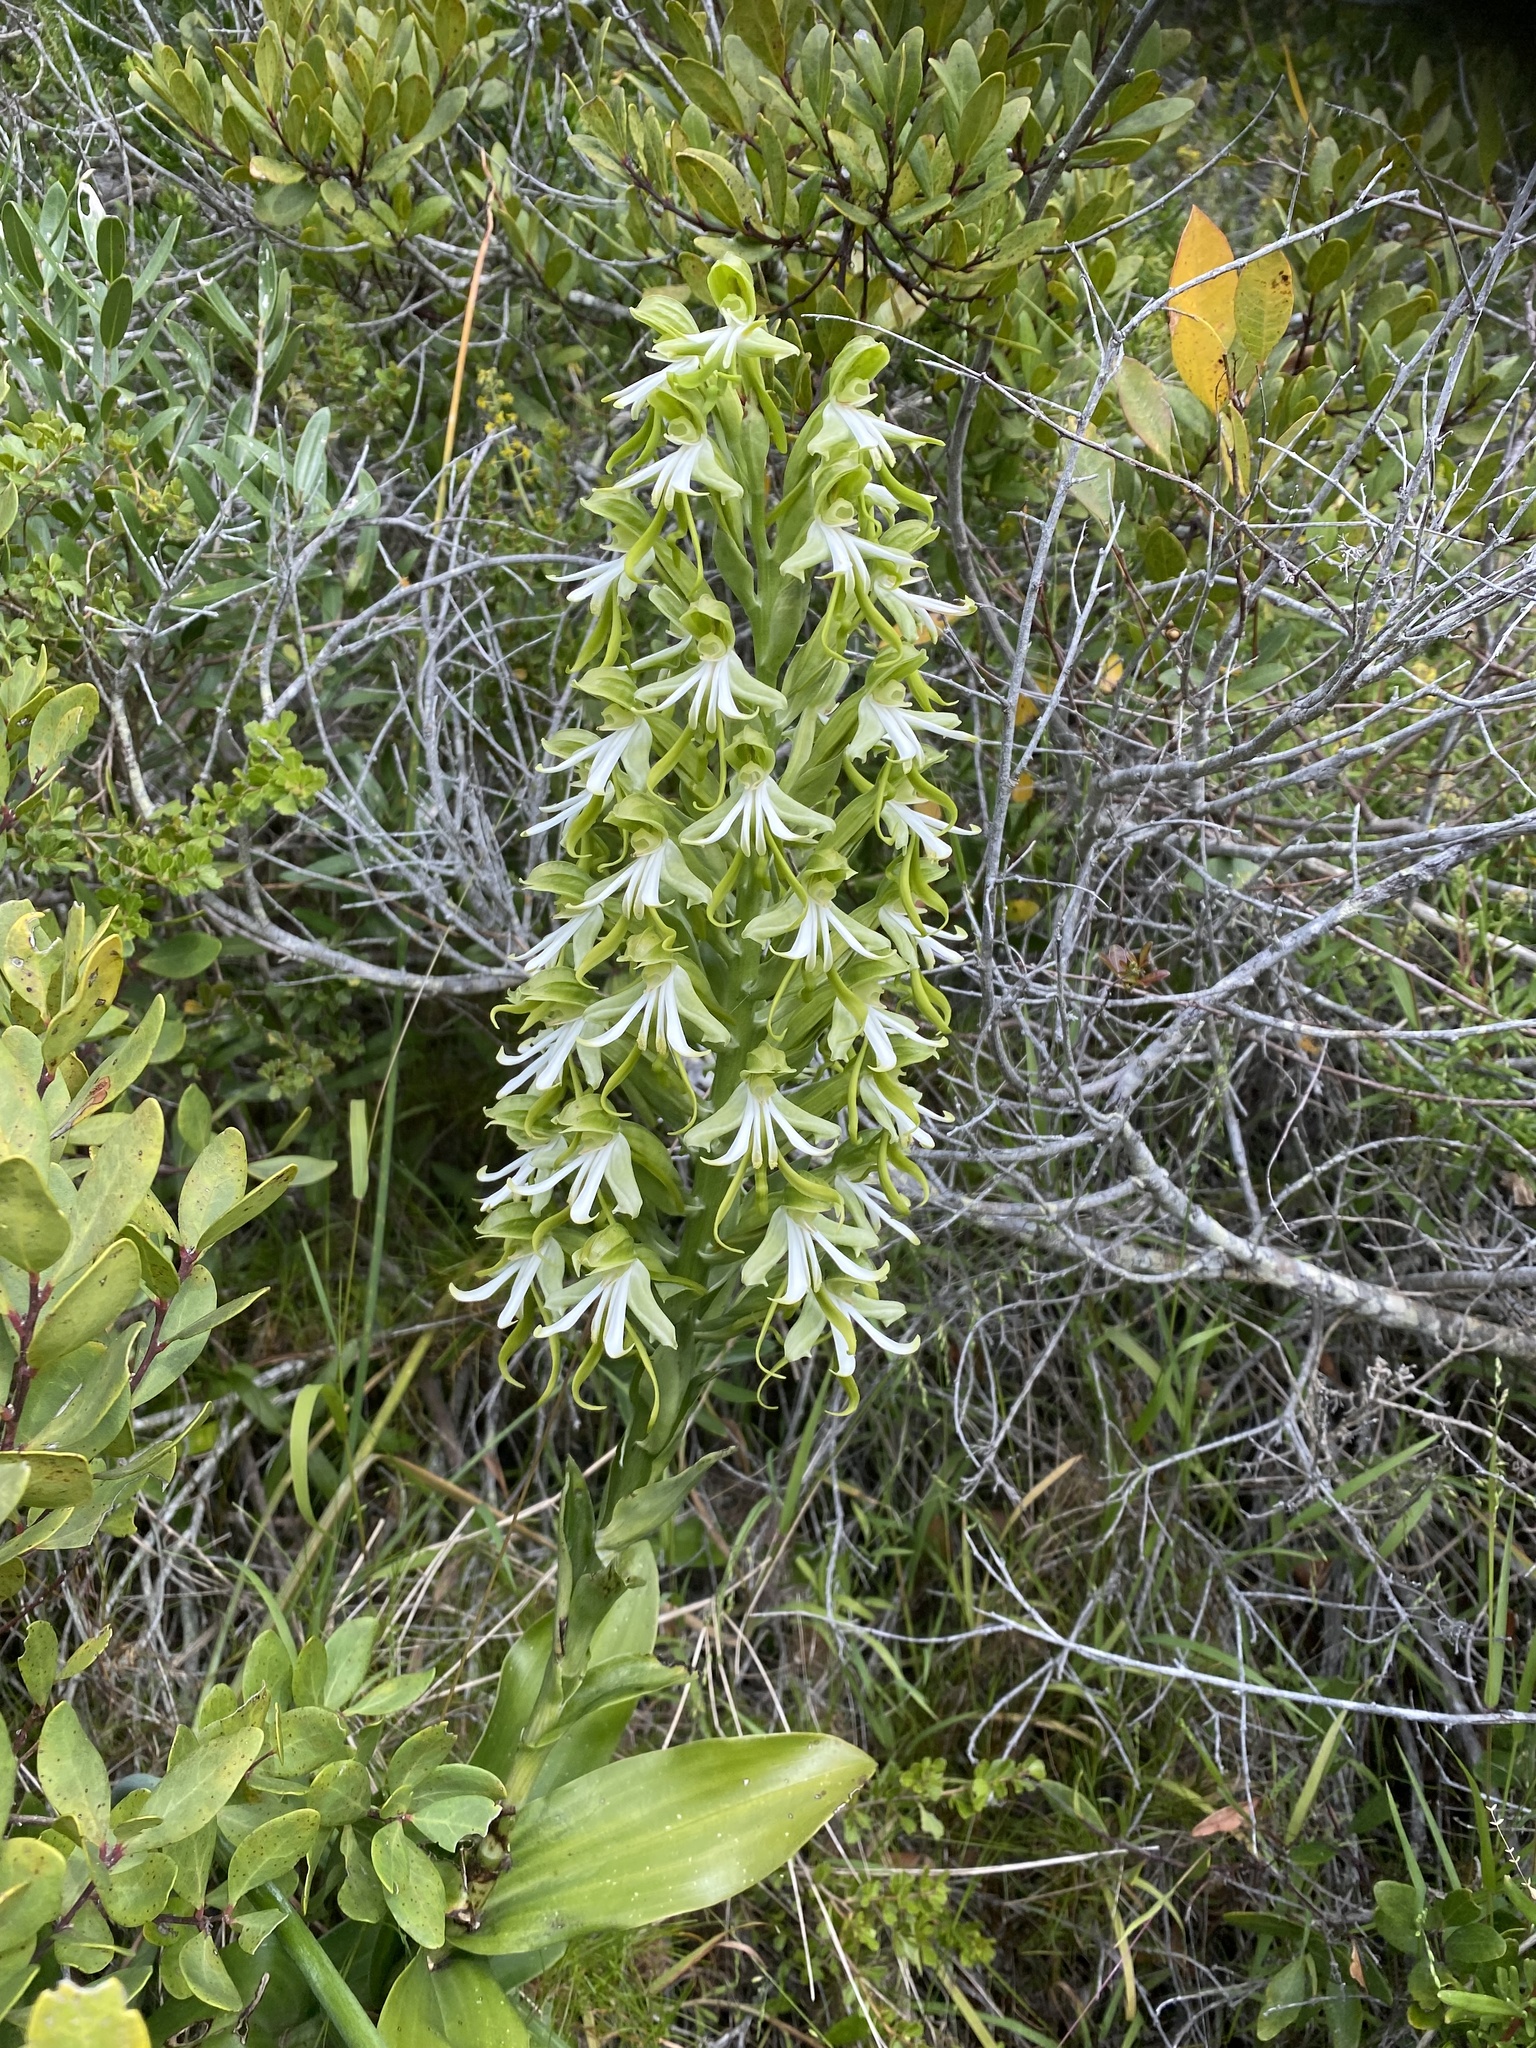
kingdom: Plantae
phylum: Tracheophyta
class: Liliopsida
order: Asparagales
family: Orchidaceae
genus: Bonatea
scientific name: Bonatea speciosa
